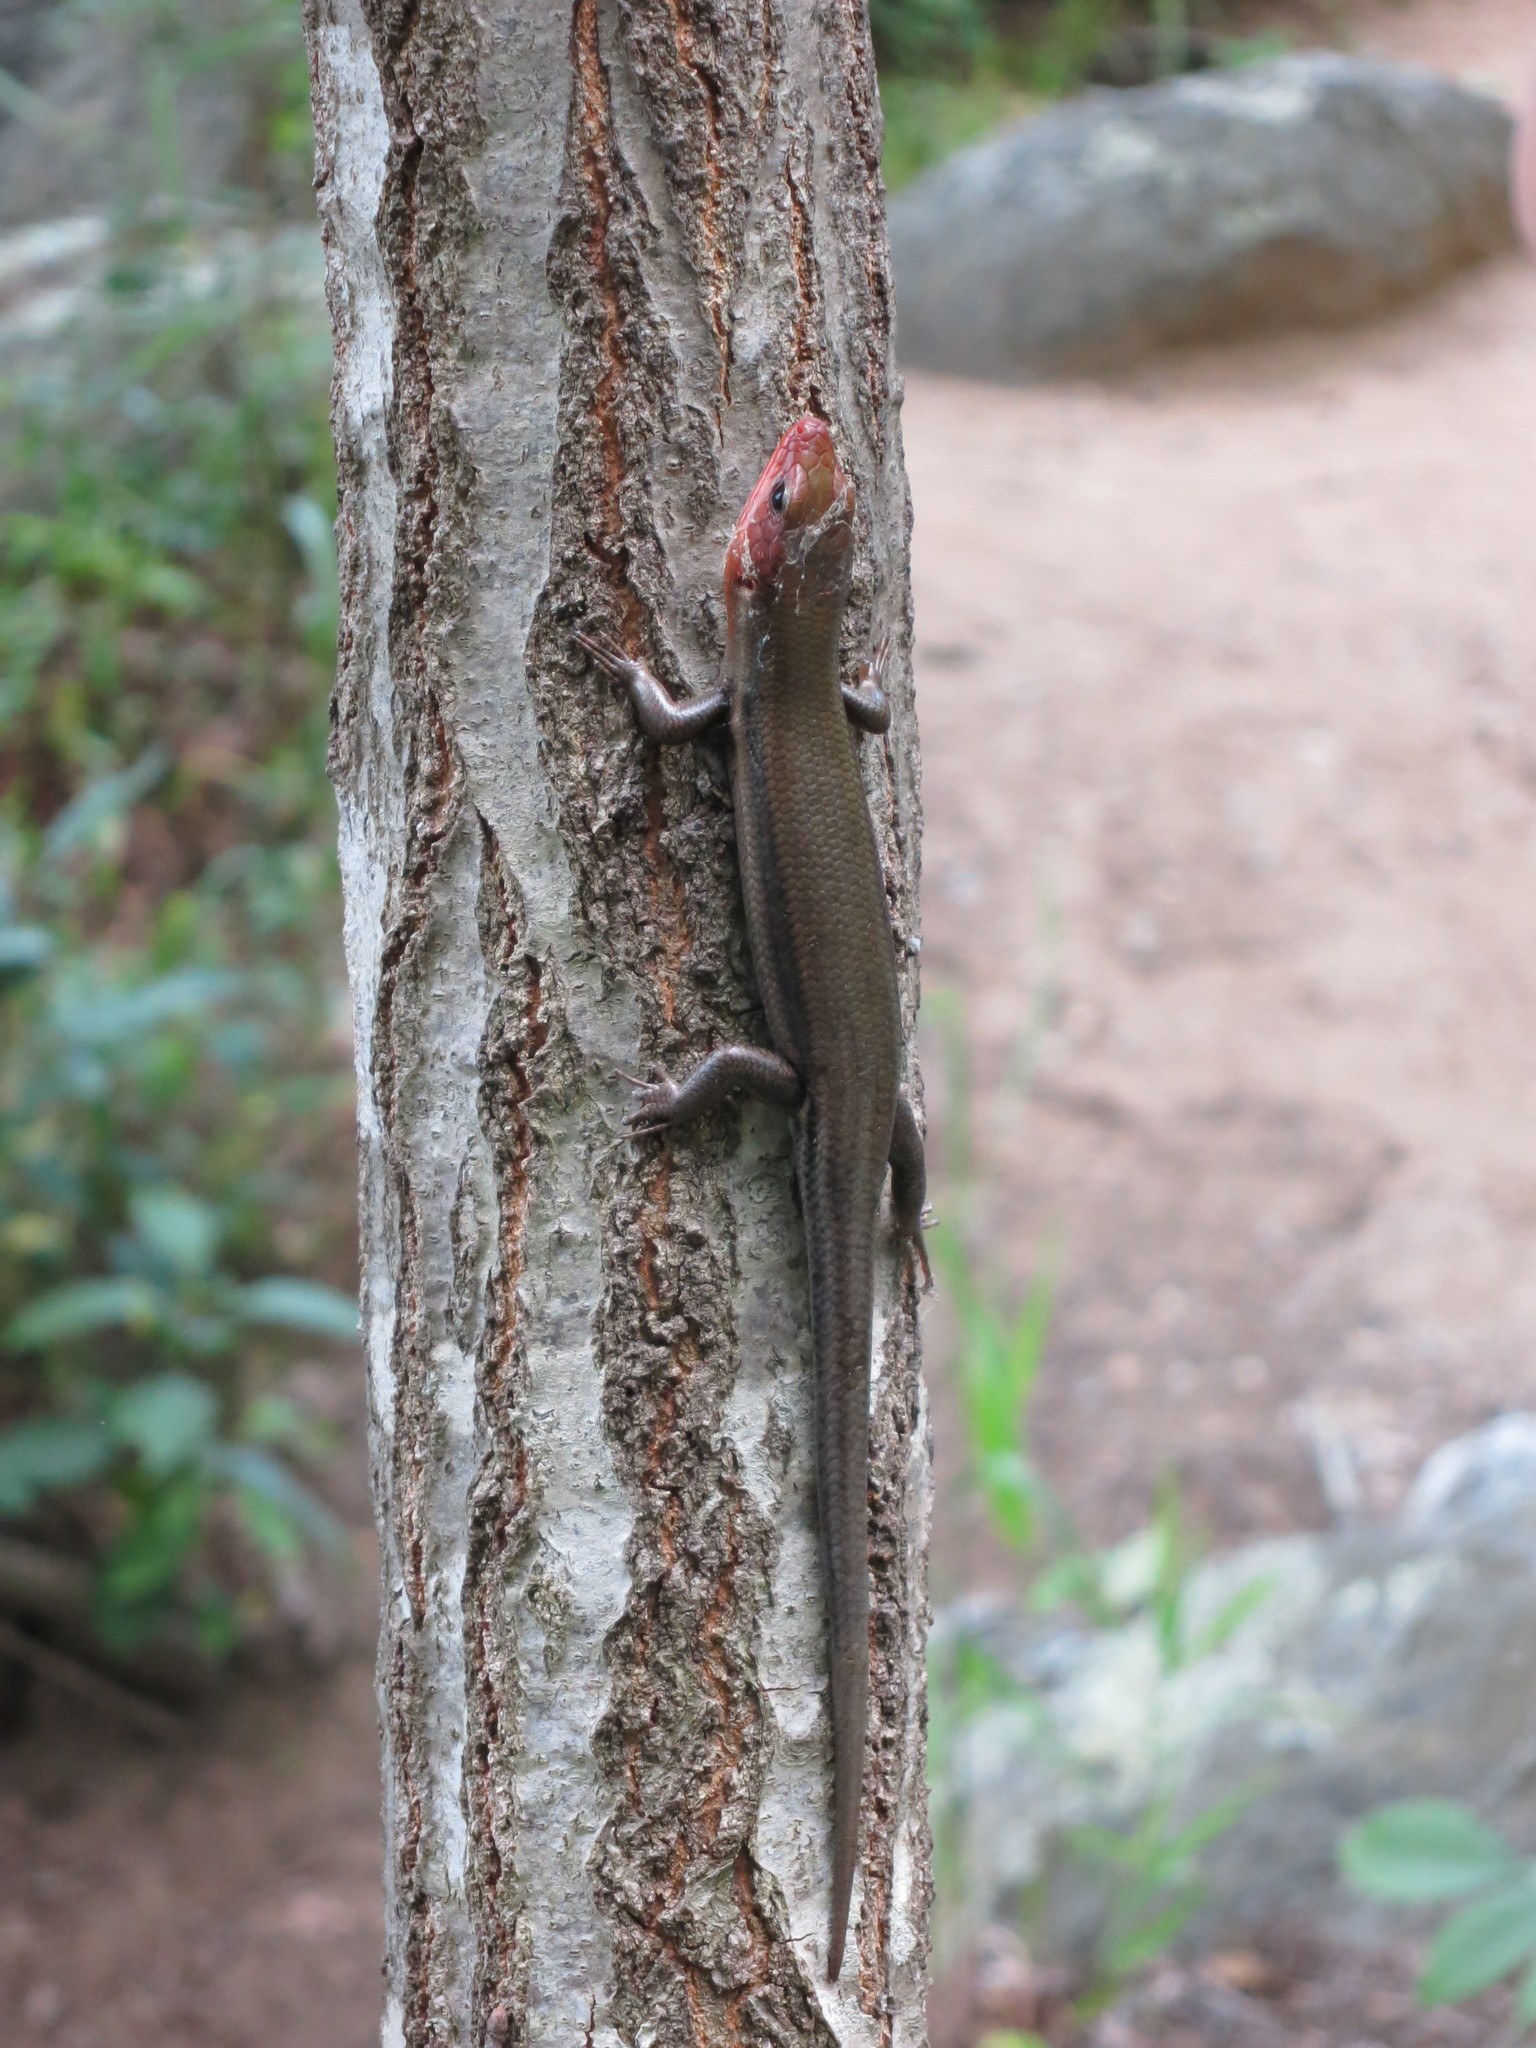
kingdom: Animalia
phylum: Chordata
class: Squamata
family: Scincidae
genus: Plestiodon
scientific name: Plestiodon fasciatus
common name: Five-lined skink
